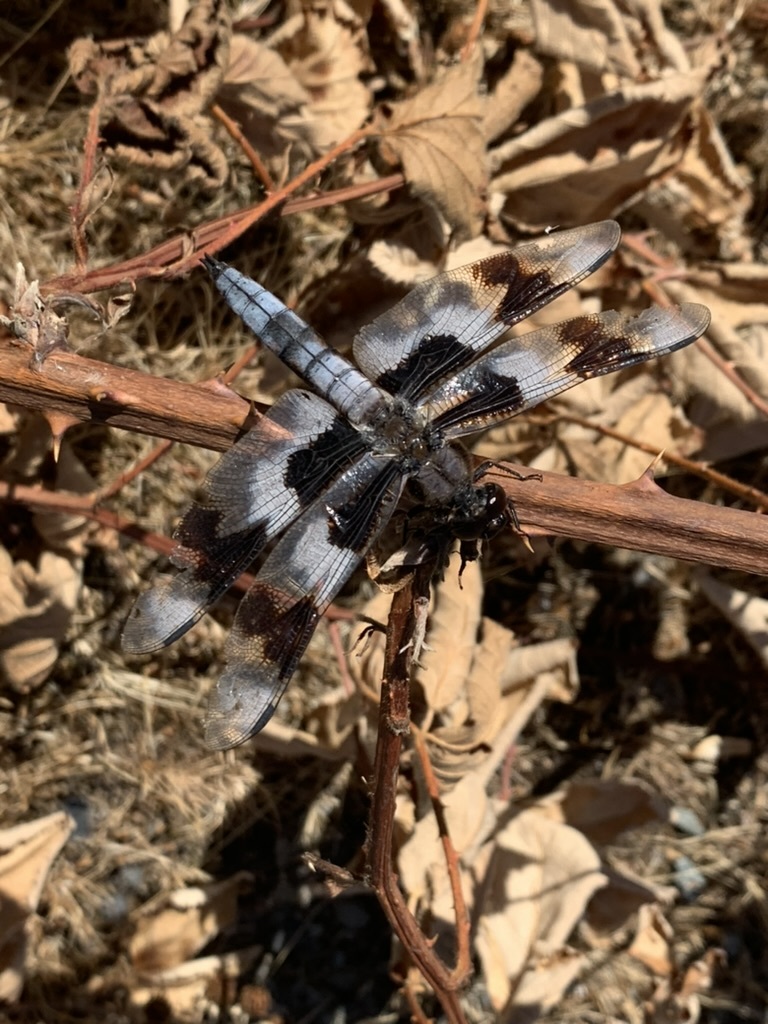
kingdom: Animalia
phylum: Arthropoda
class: Insecta
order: Odonata
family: Libellulidae
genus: Libellula
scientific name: Libellula forensis
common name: Eight-spotted skimmer
